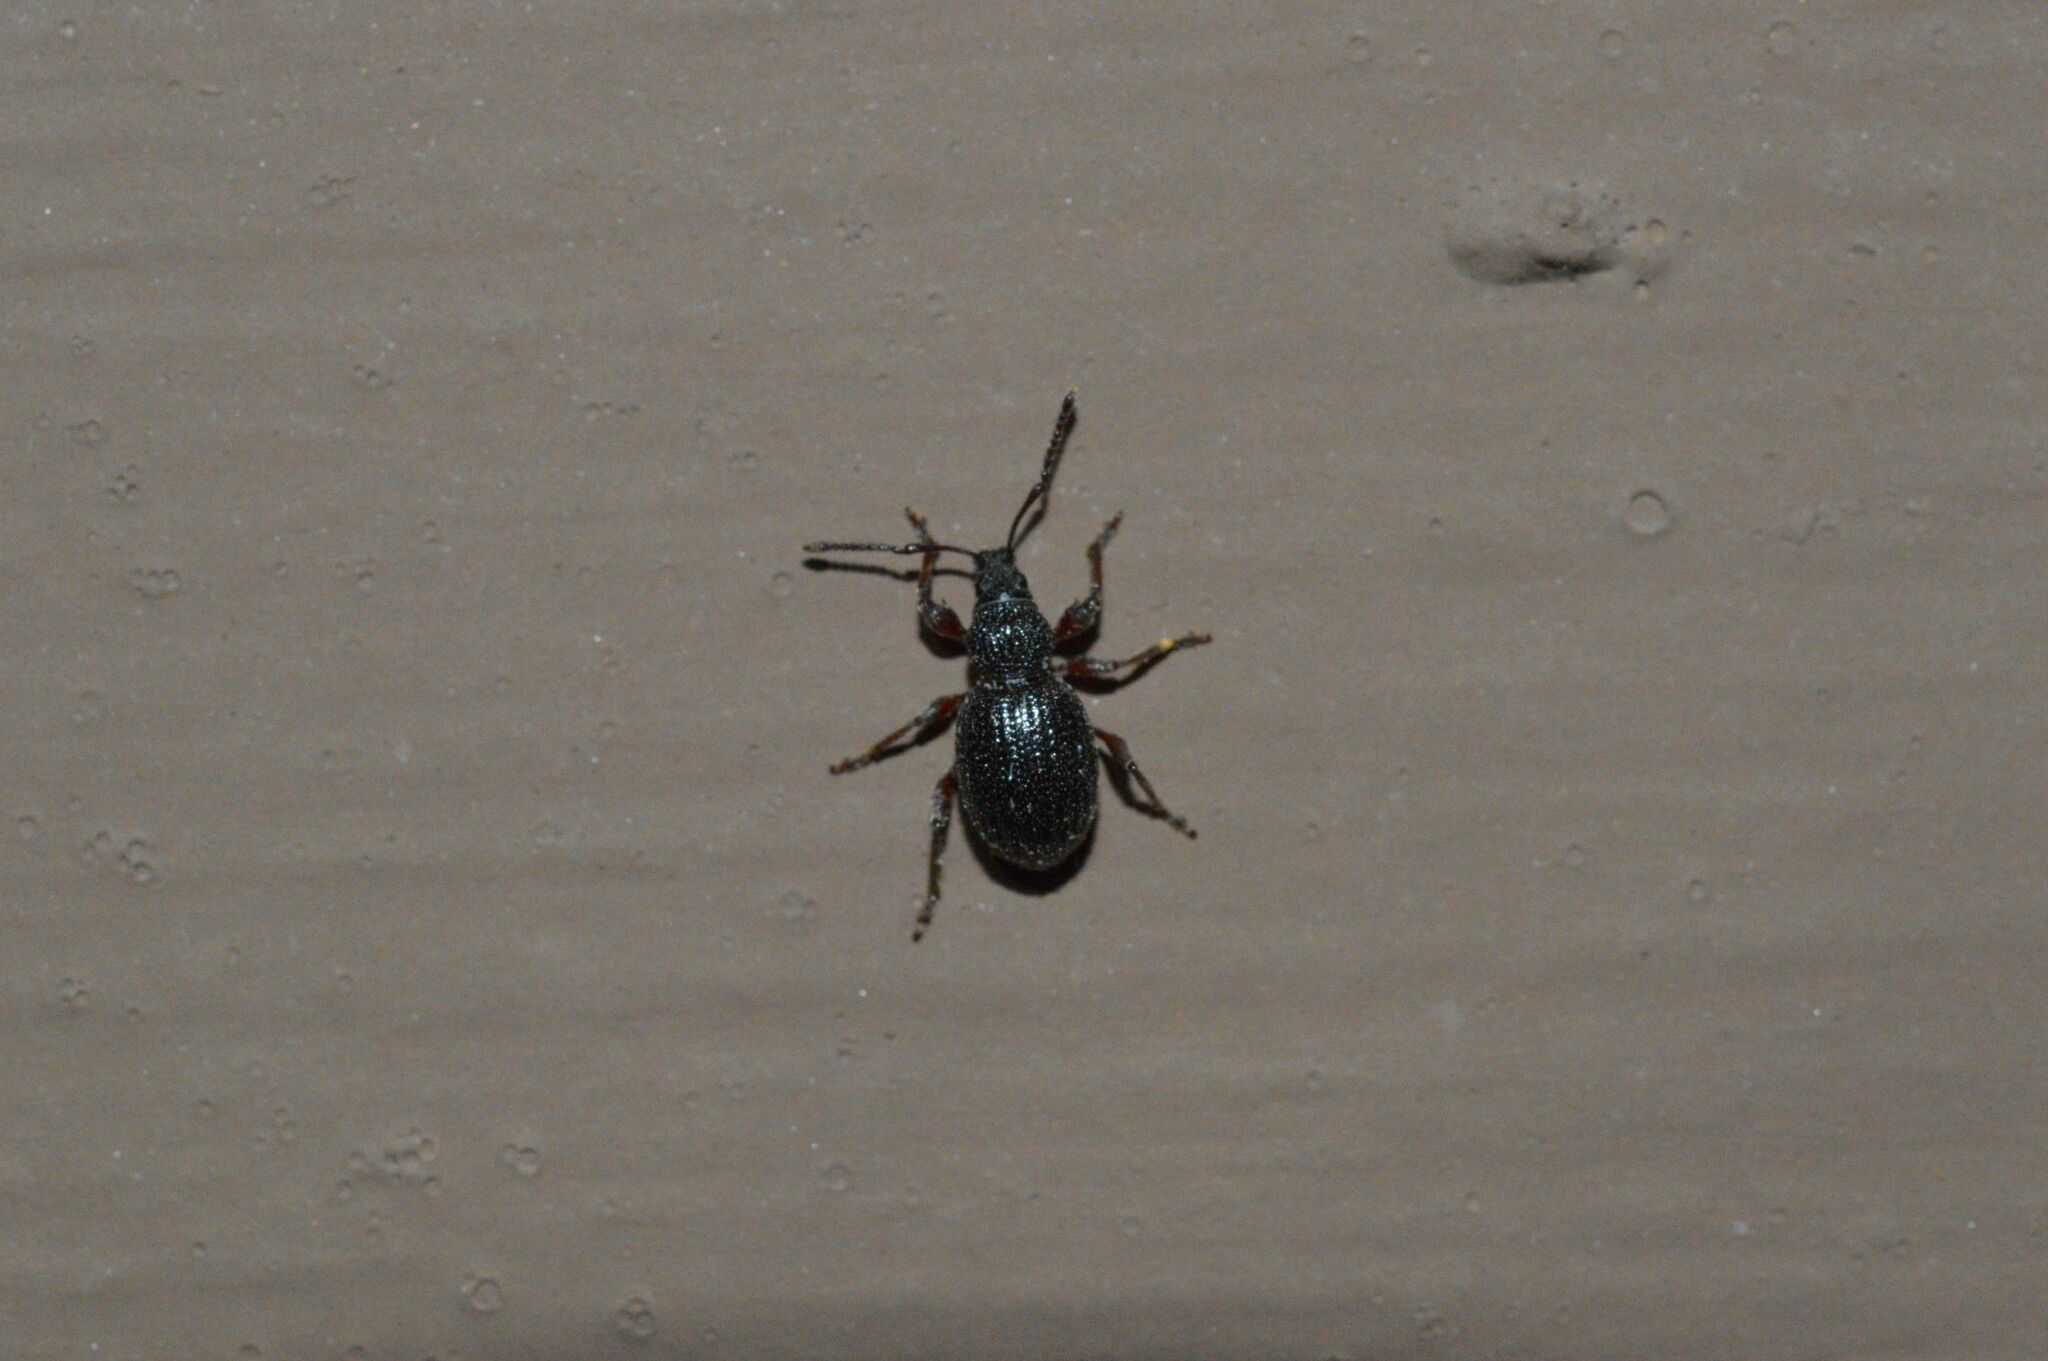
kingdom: Animalia
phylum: Arthropoda
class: Insecta
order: Coleoptera
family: Curculionidae
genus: Otiorhynchus
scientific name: Otiorhynchus ovatus
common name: Strawberry root weevil
